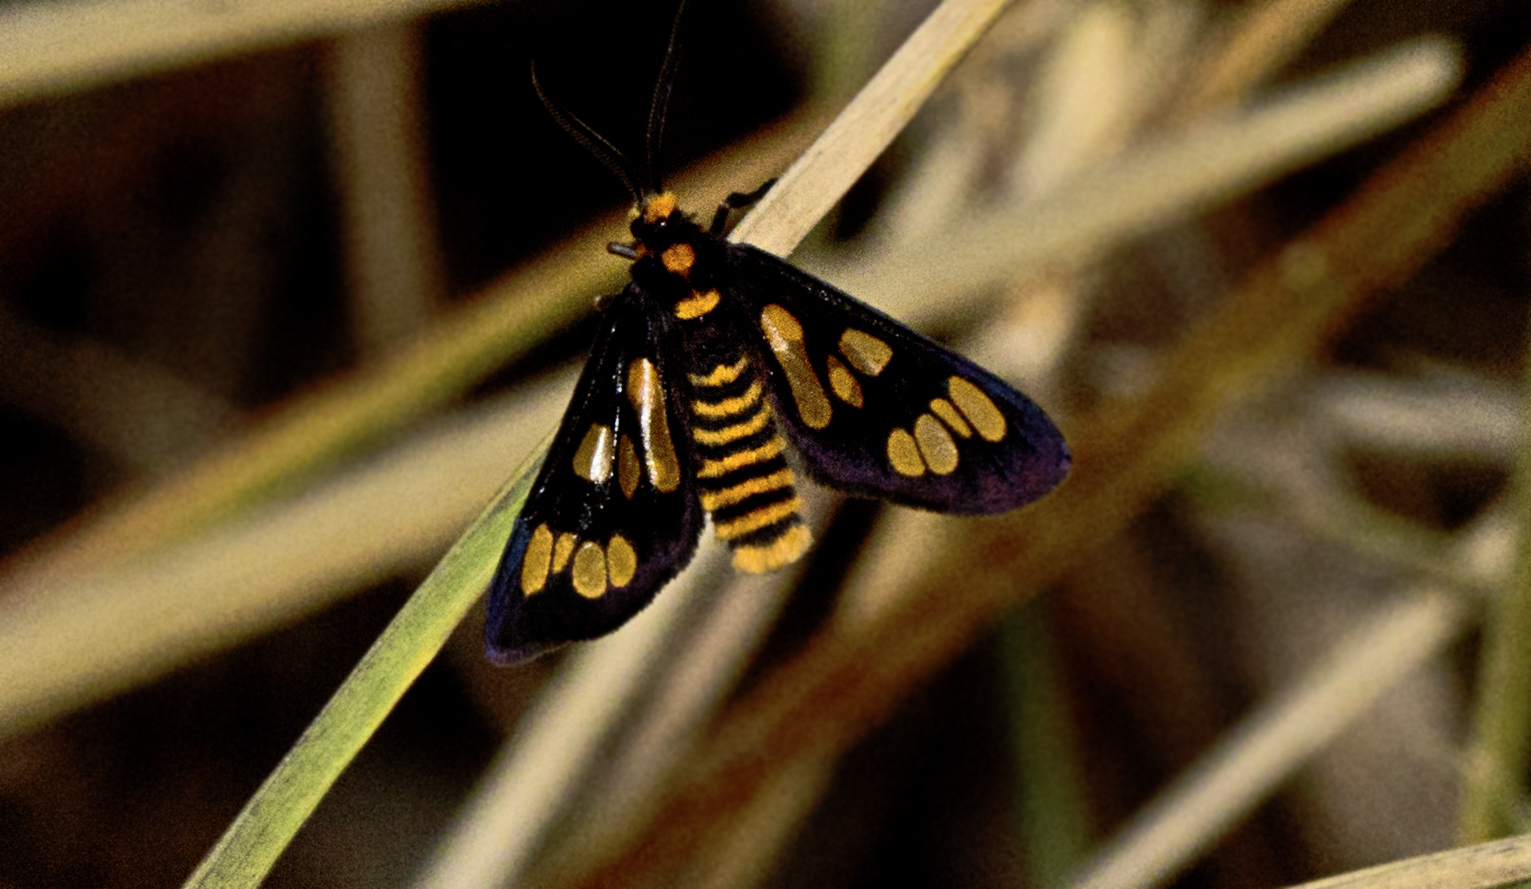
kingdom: Animalia
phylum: Arthropoda
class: Insecta
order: Lepidoptera
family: Erebidae
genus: Eressa
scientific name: Eressa geographica
